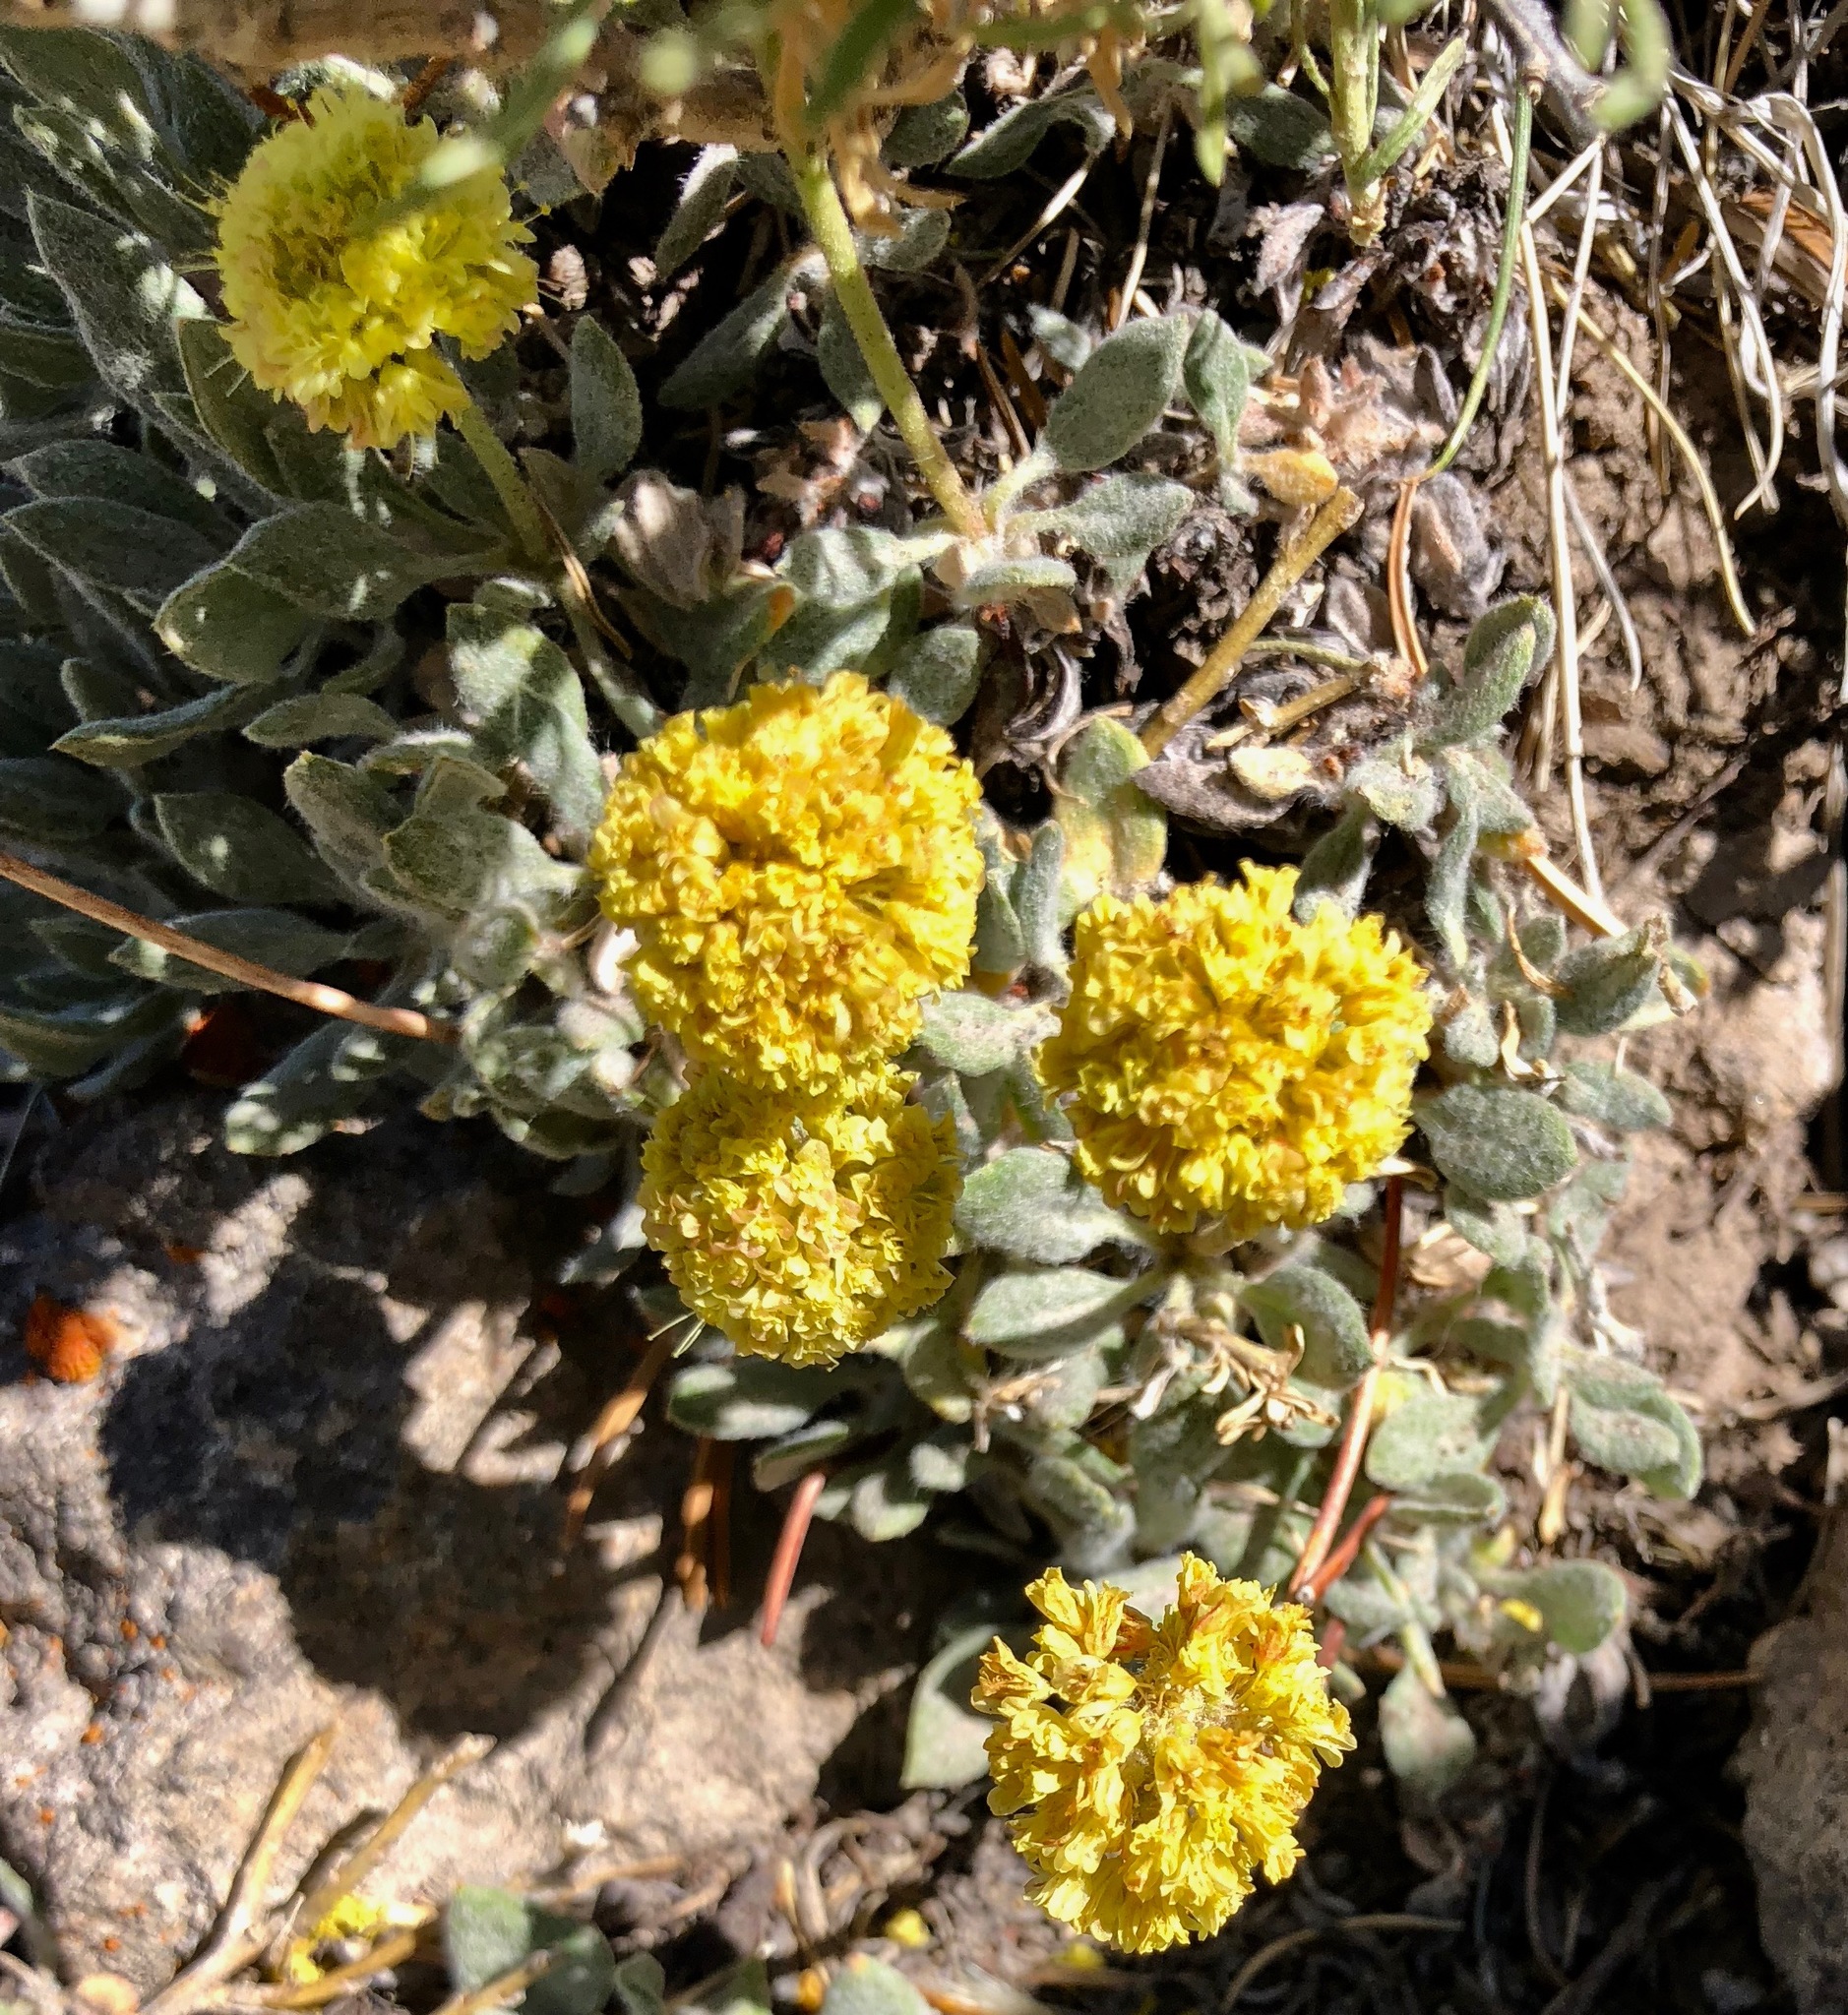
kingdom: Plantae
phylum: Tracheophyta
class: Magnoliopsida
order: Caryophyllales
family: Polygonaceae
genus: Eriogonum
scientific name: Eriogonum rosense
